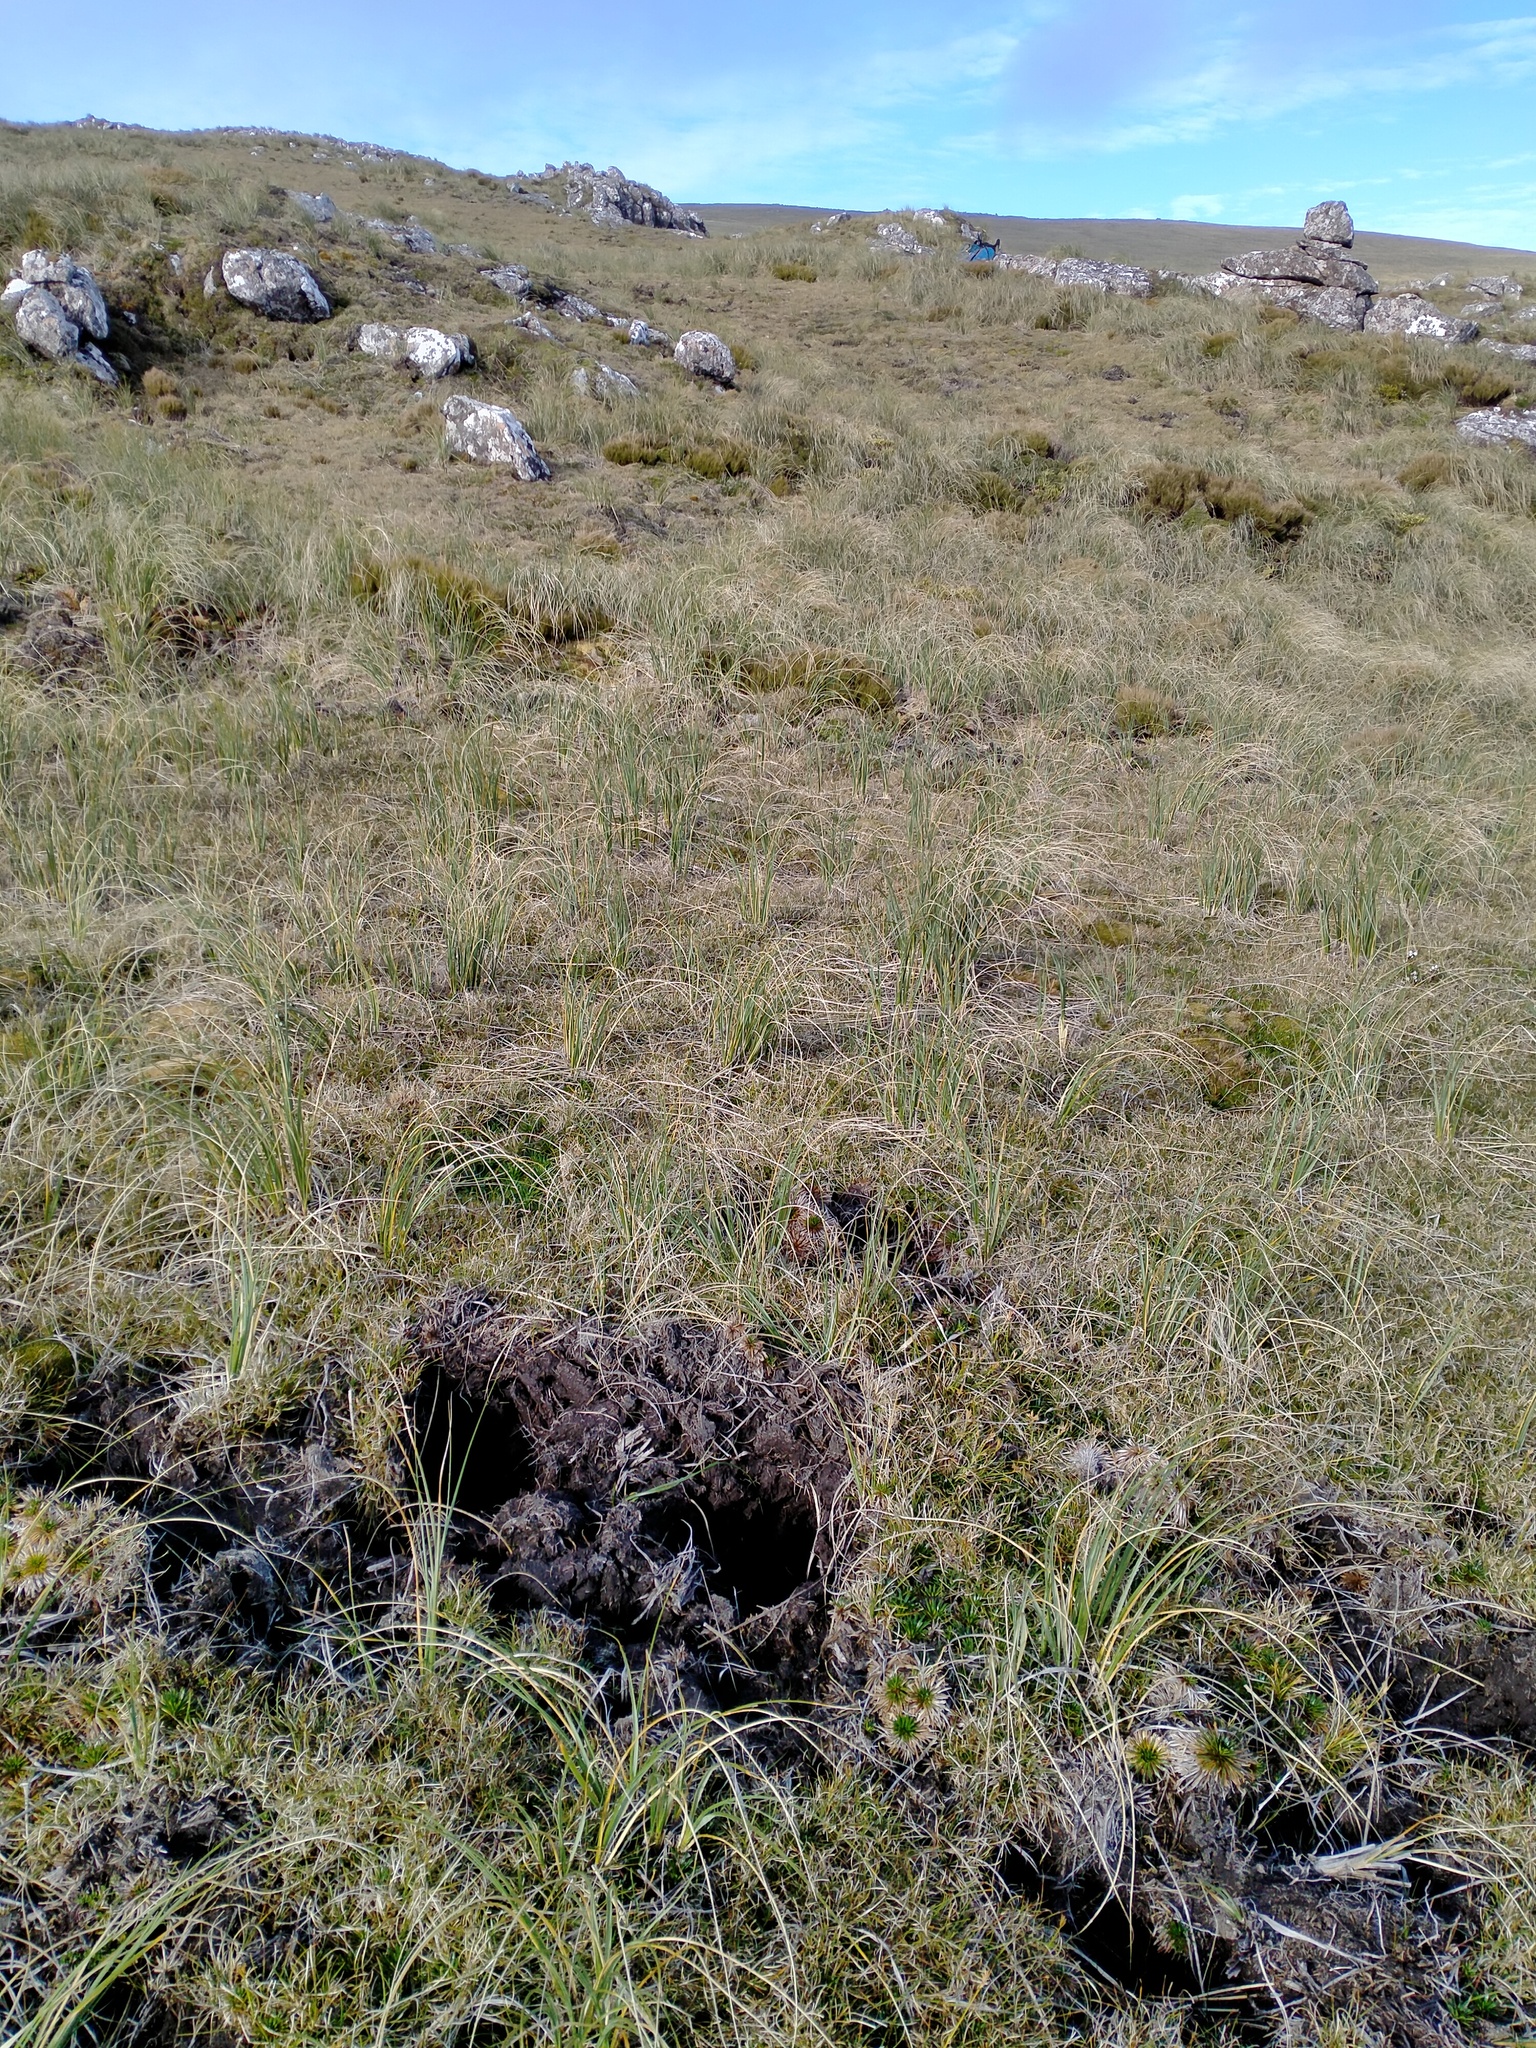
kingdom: Animalia
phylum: Chordata
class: Mammalia
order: Artiodactyla
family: Suidae
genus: Sus
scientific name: Sus scrofa
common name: Wild boar
